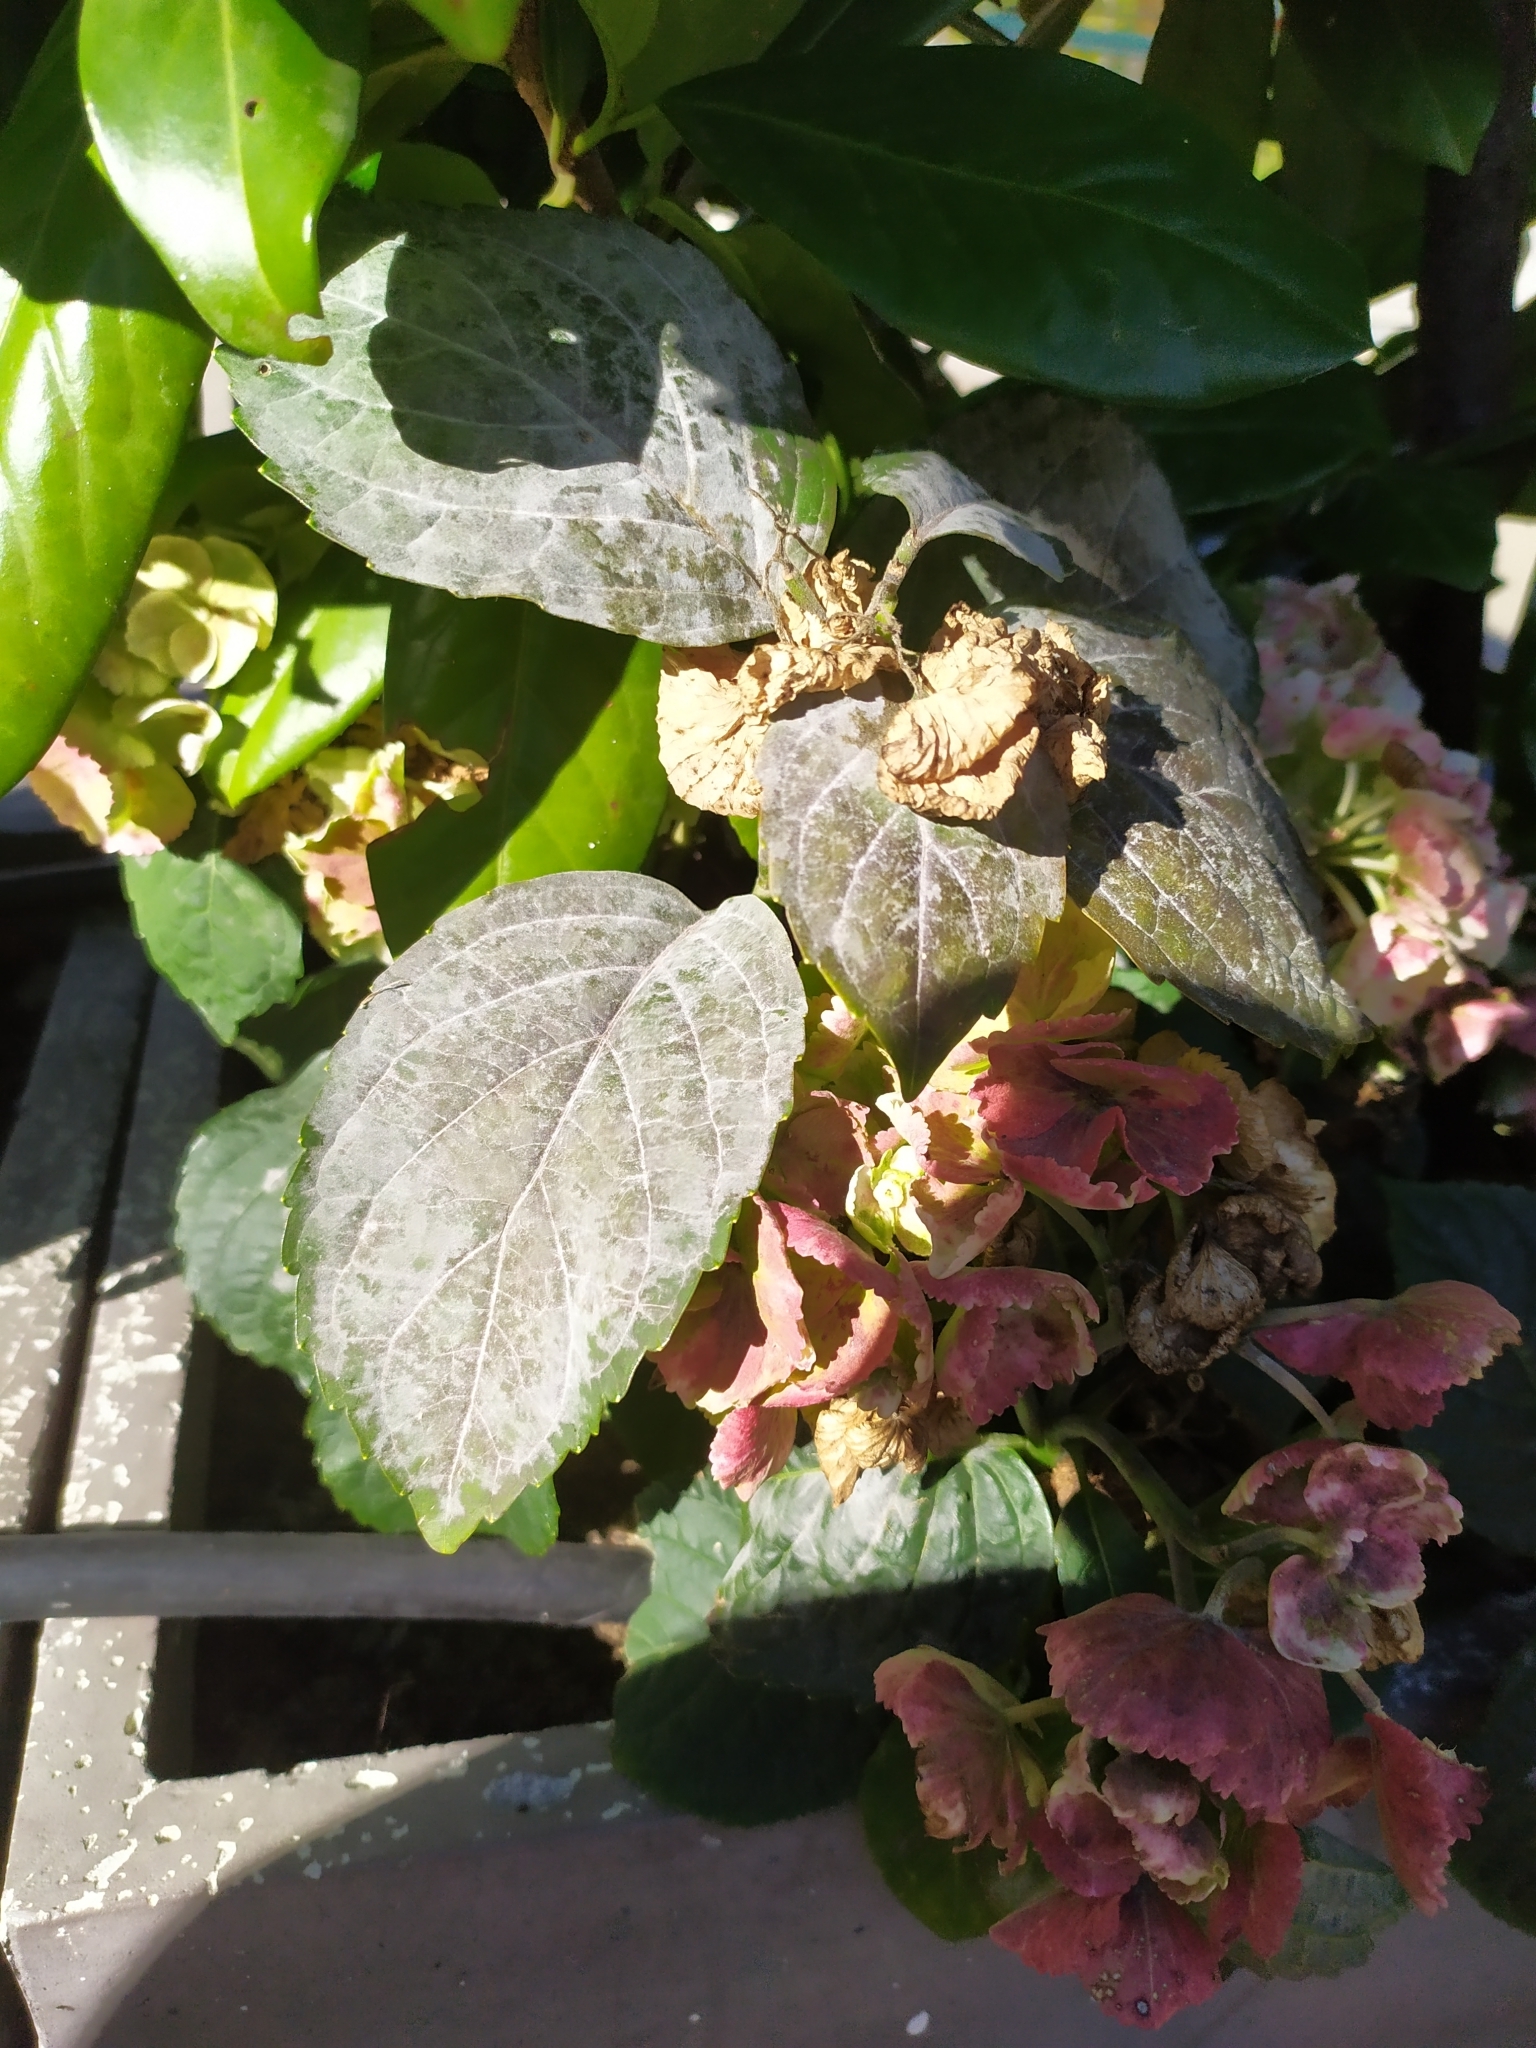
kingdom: Fungi
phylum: Ascomycota
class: Leotiomycetes
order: Helotiales
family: Erysiphaceae
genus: Erysiphe
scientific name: Erysiphe begoniicola
